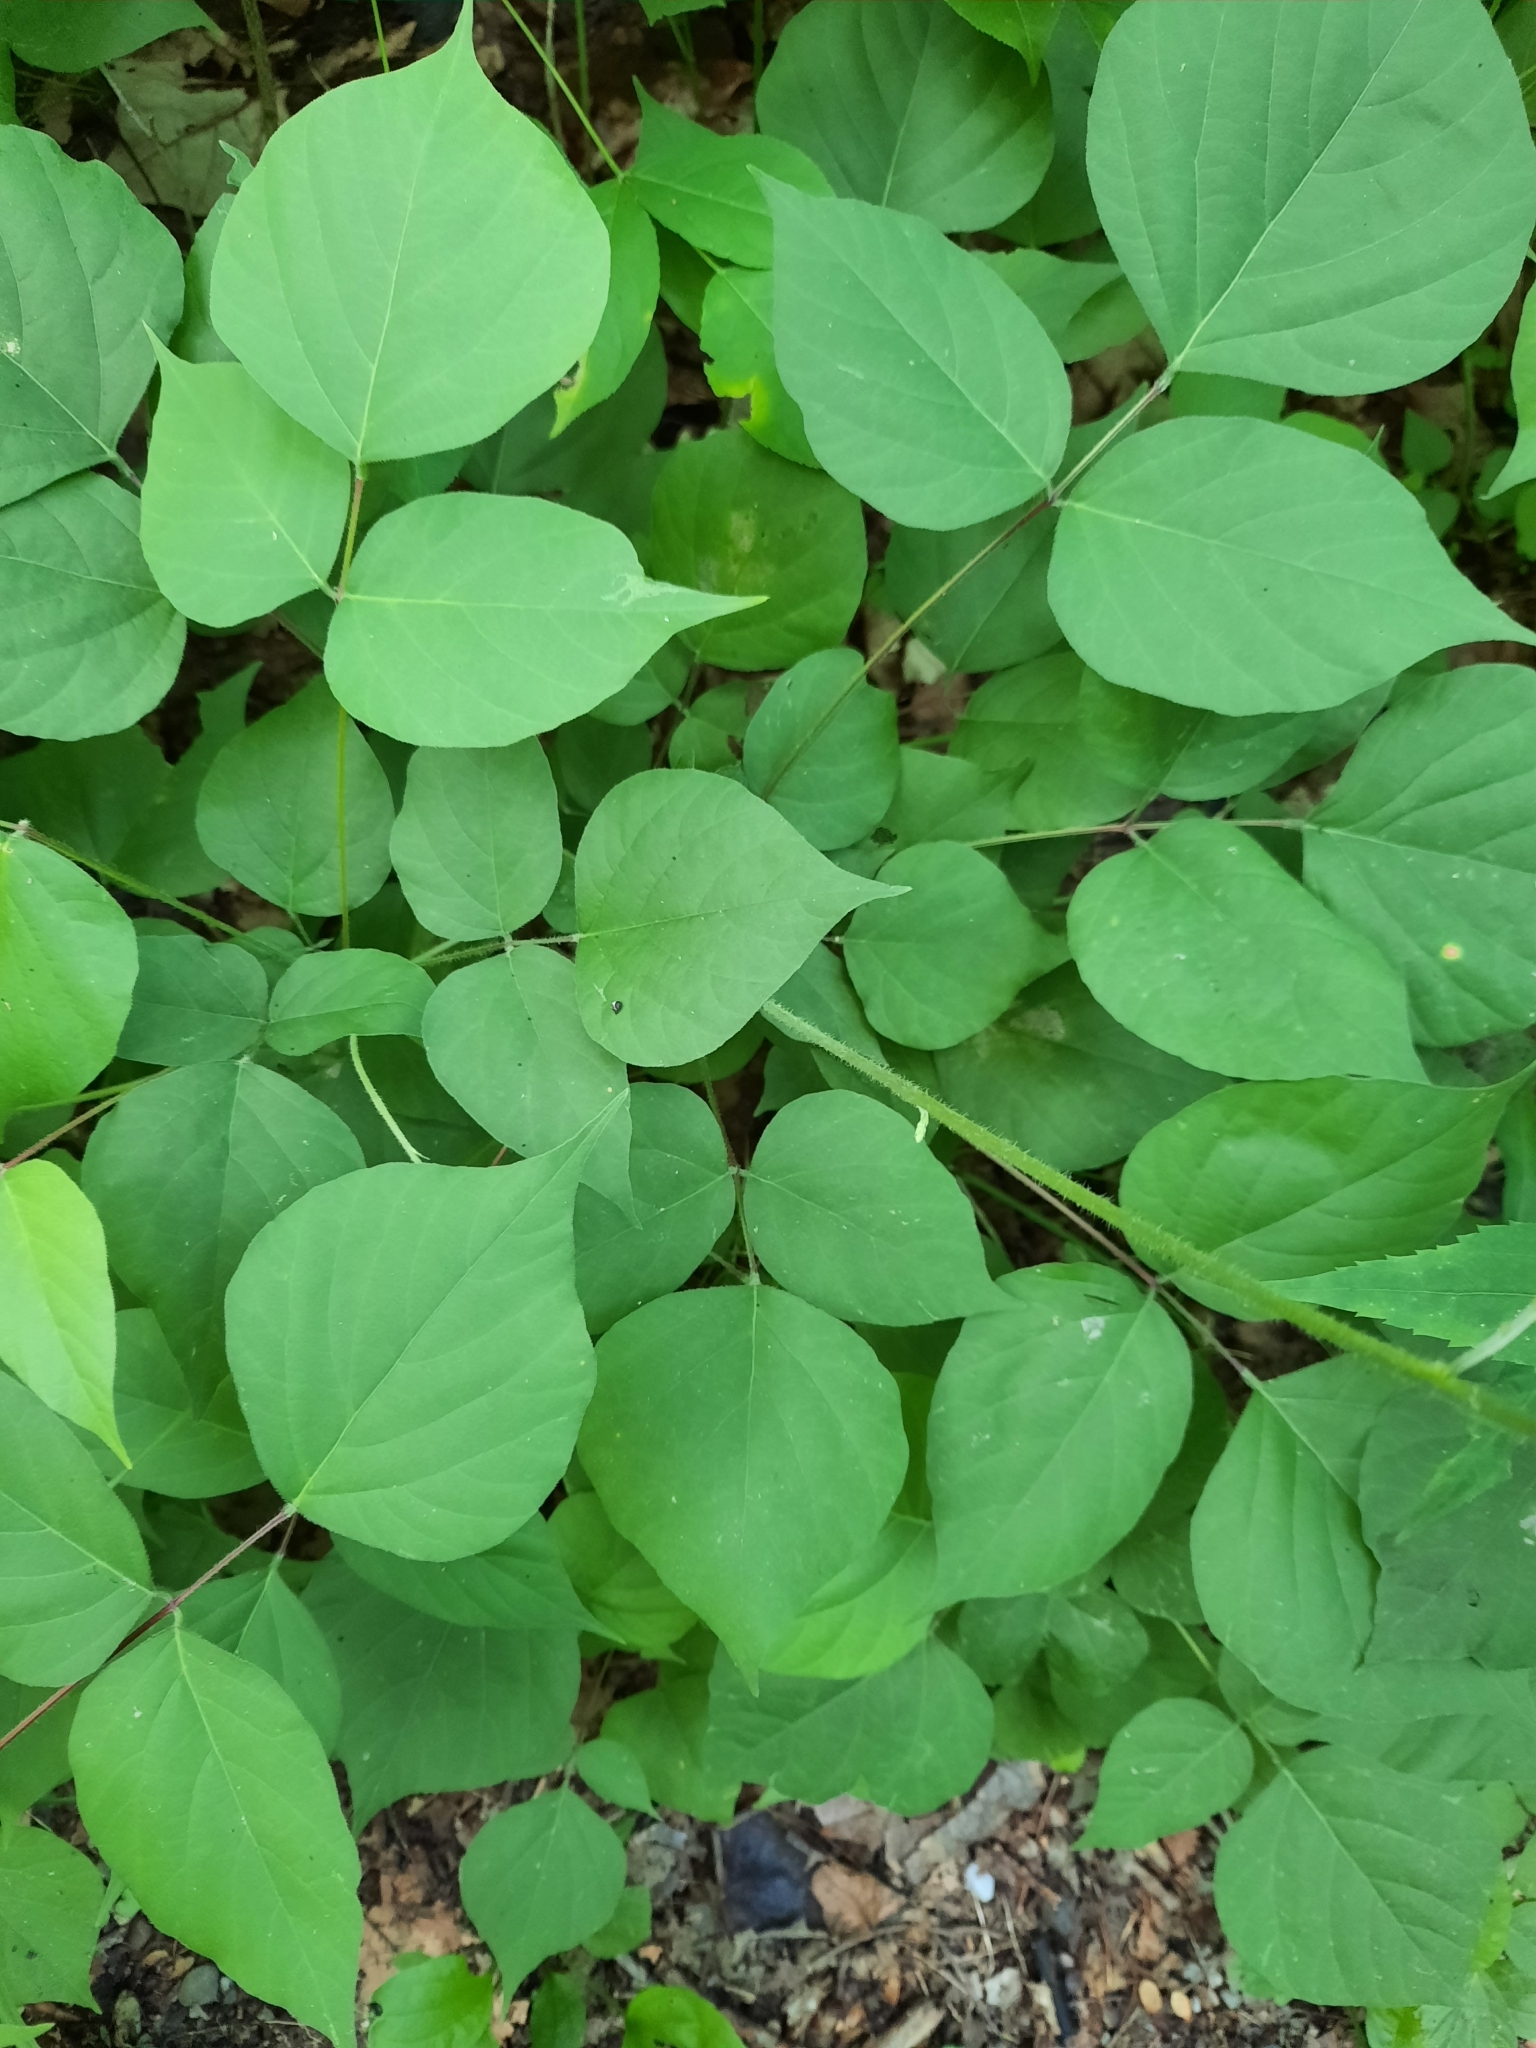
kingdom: Plantae
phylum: Tracheophyta
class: Magnoliopsida
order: Fabales
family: Fabaceae
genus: Hylodesmum
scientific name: Hylodesmum glutinosum
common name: Clustered-leaved tick-trefoil
